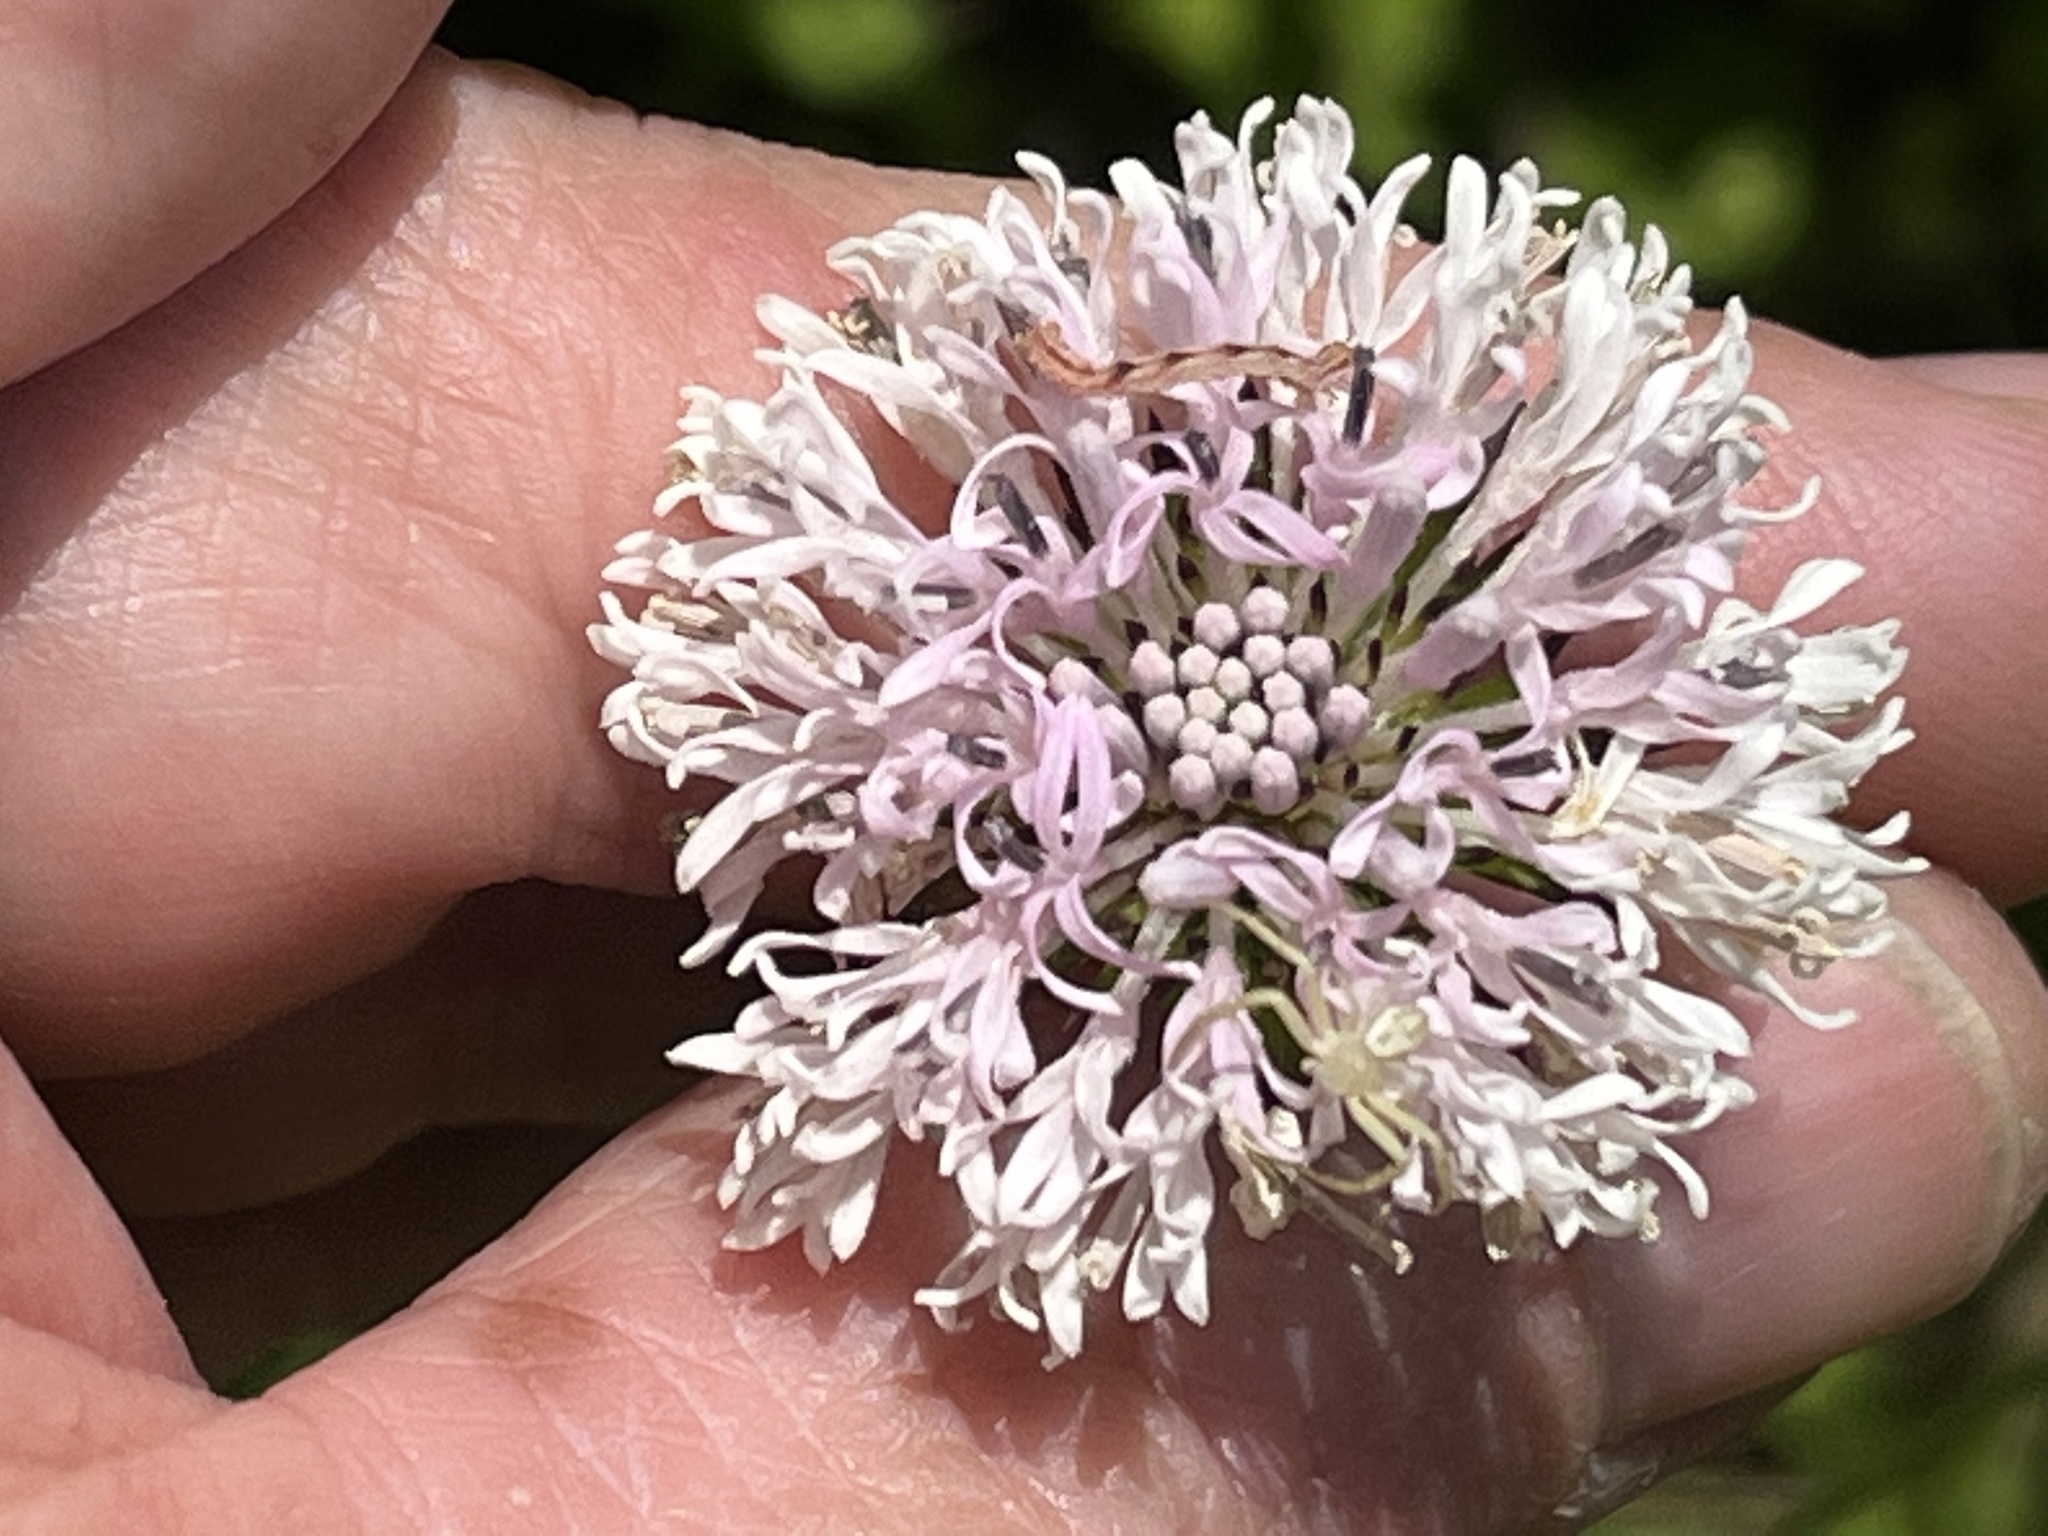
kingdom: Plantae
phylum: Tracheophyta
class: Magnoliopsida
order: Asterales
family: Asteraceae
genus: Marshallia
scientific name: Marshallia trinervia
